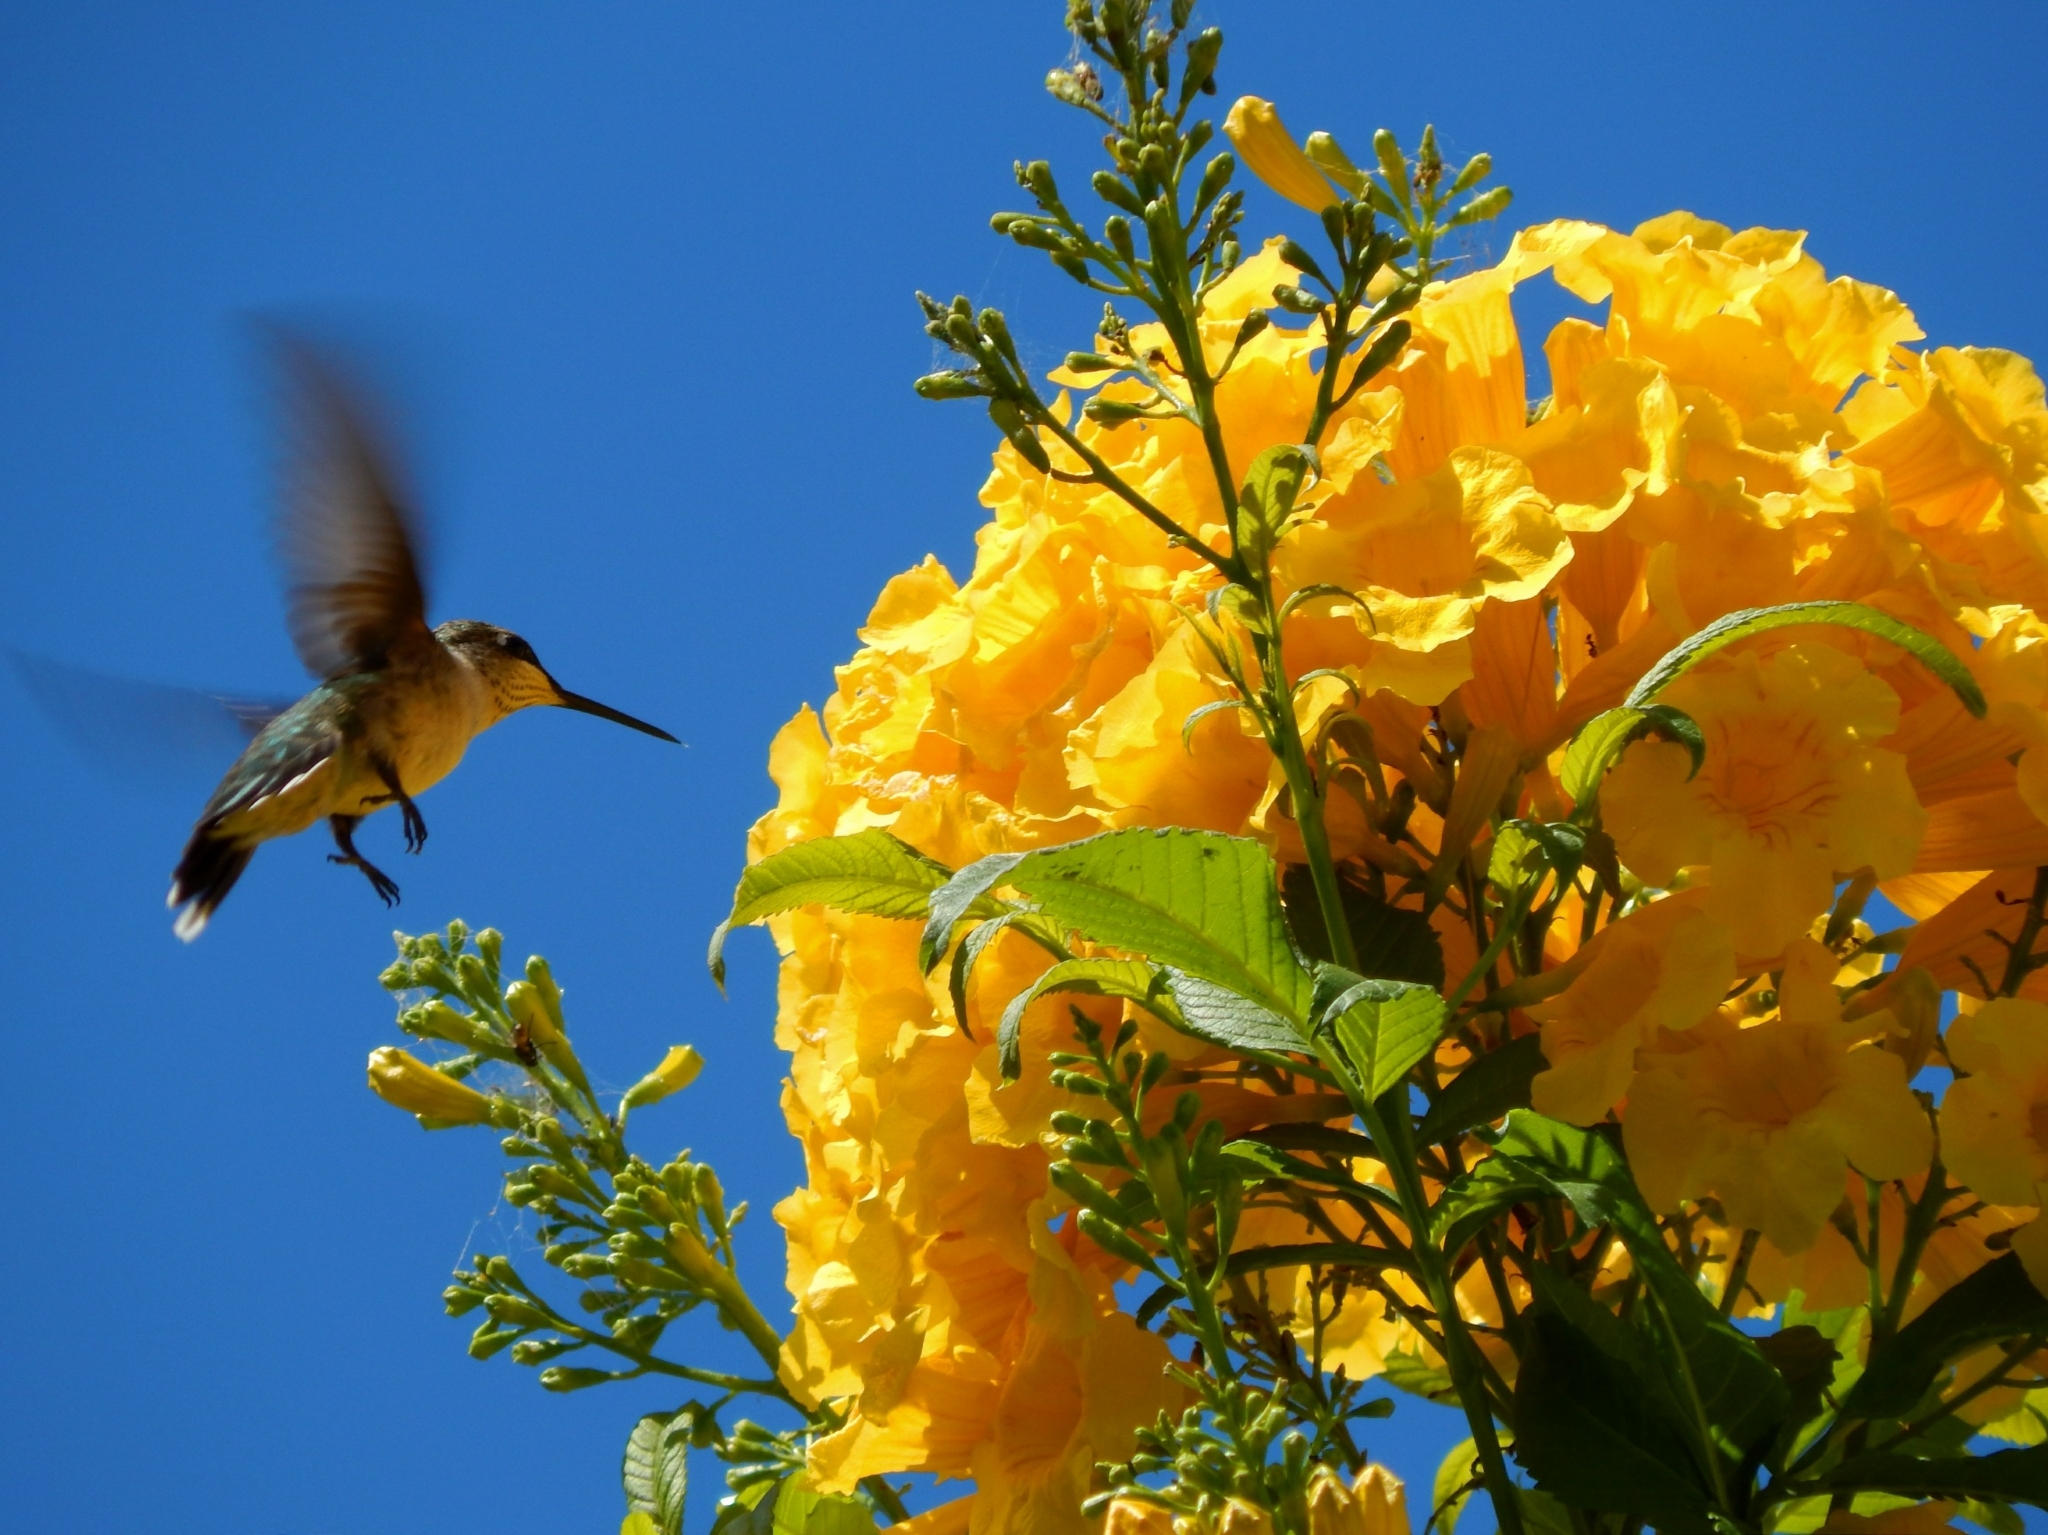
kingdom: Animalia
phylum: Chordata
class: Aves
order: Apodiformes
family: Trochilidae
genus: Archilochus
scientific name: Archilochus colubris
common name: Ruby-throated hummingbird
